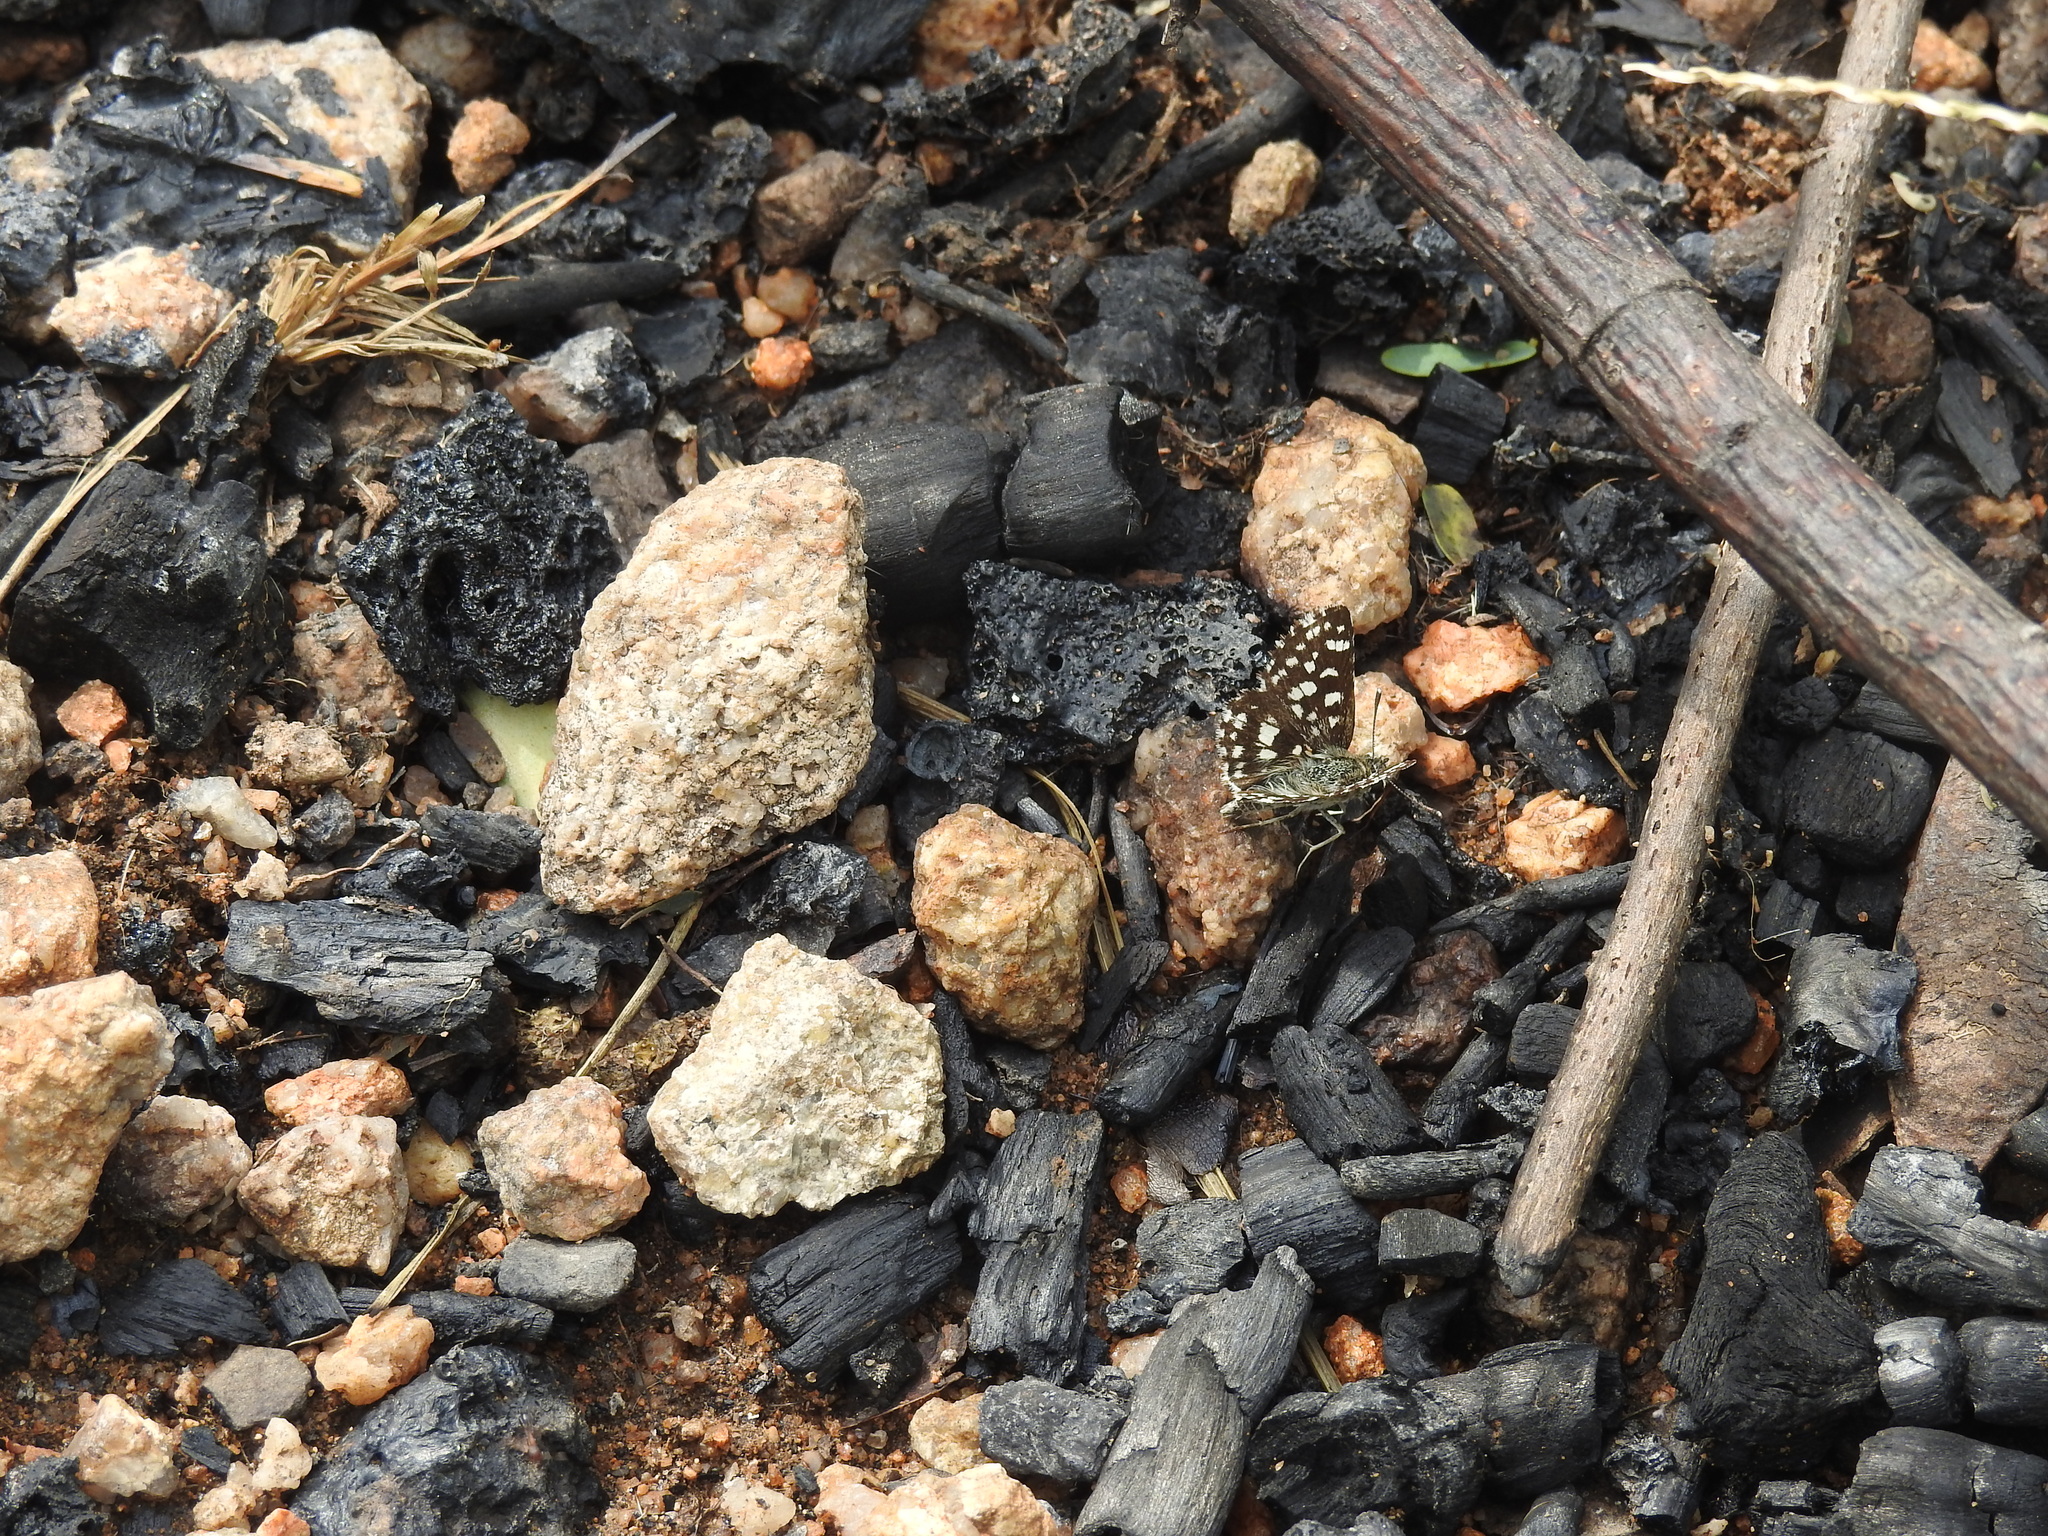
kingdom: Animalia
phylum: Arthropoda
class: Insecta
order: Lepidoptera
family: Hesperiidae
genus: Spialia
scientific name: Spialia galba
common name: Indian skipper
